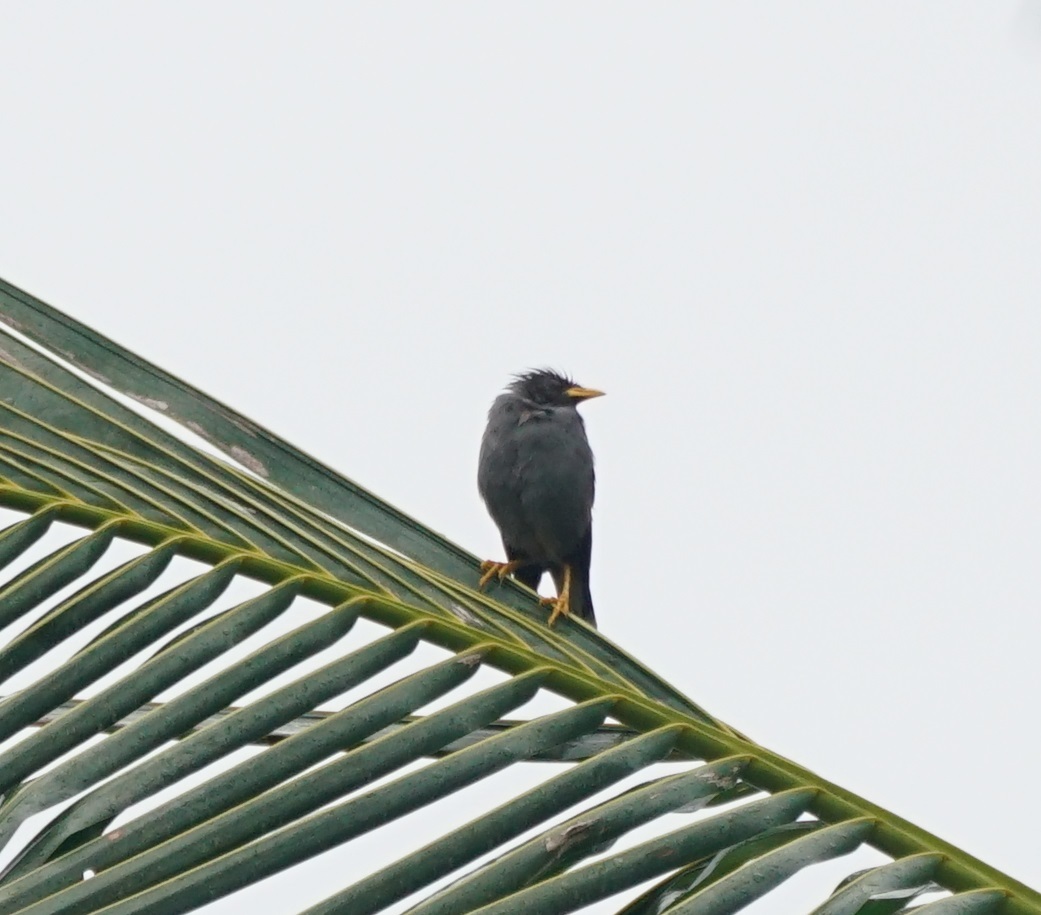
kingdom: Animalia
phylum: Chordata
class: Aves
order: Passeriformes
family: Sturnidae
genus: Acridotheres
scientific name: Acridotheres javanicus
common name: Javan myna
